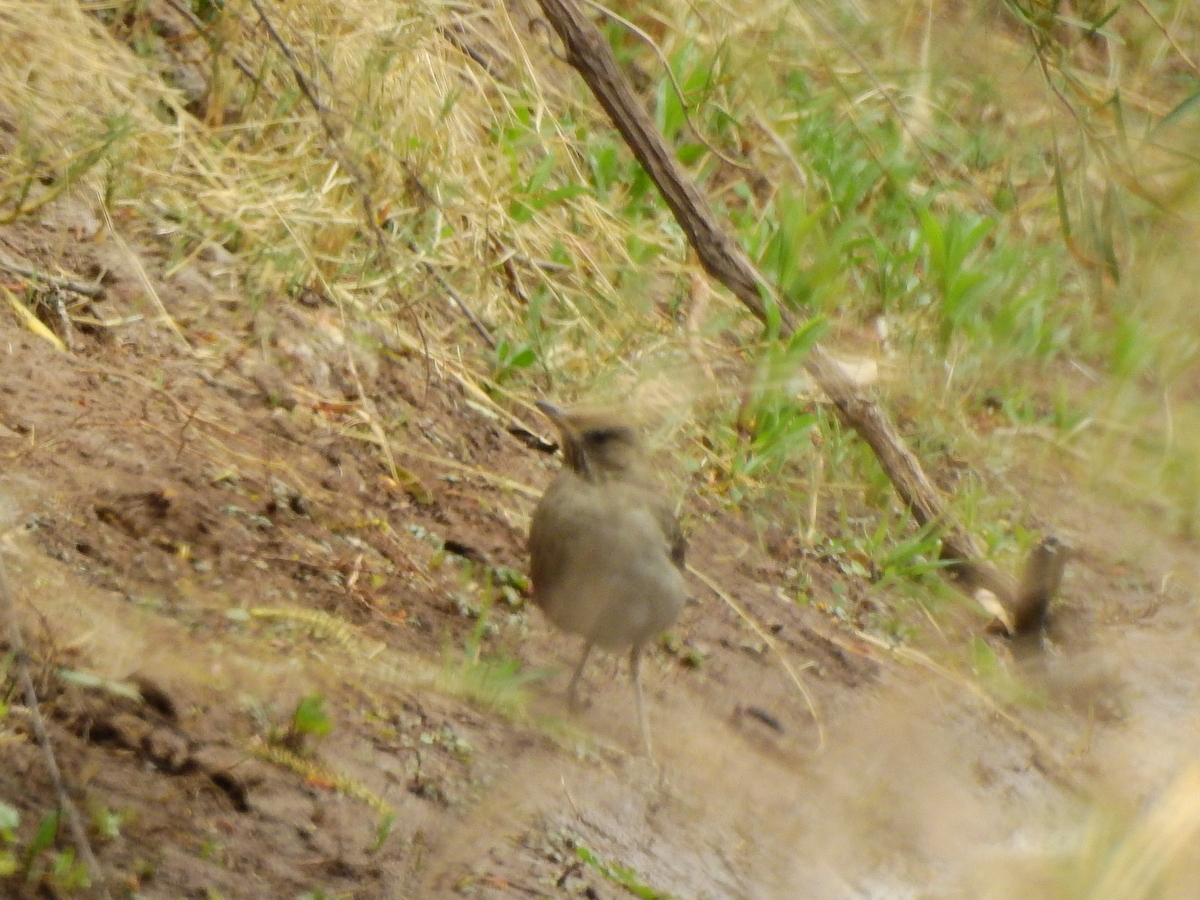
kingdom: Animalia
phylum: Chordata
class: Aves
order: Passeriformes
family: Turdidae
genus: Turdus
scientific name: Turdus amaurochalinus
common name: Creamy-bellied thrush
